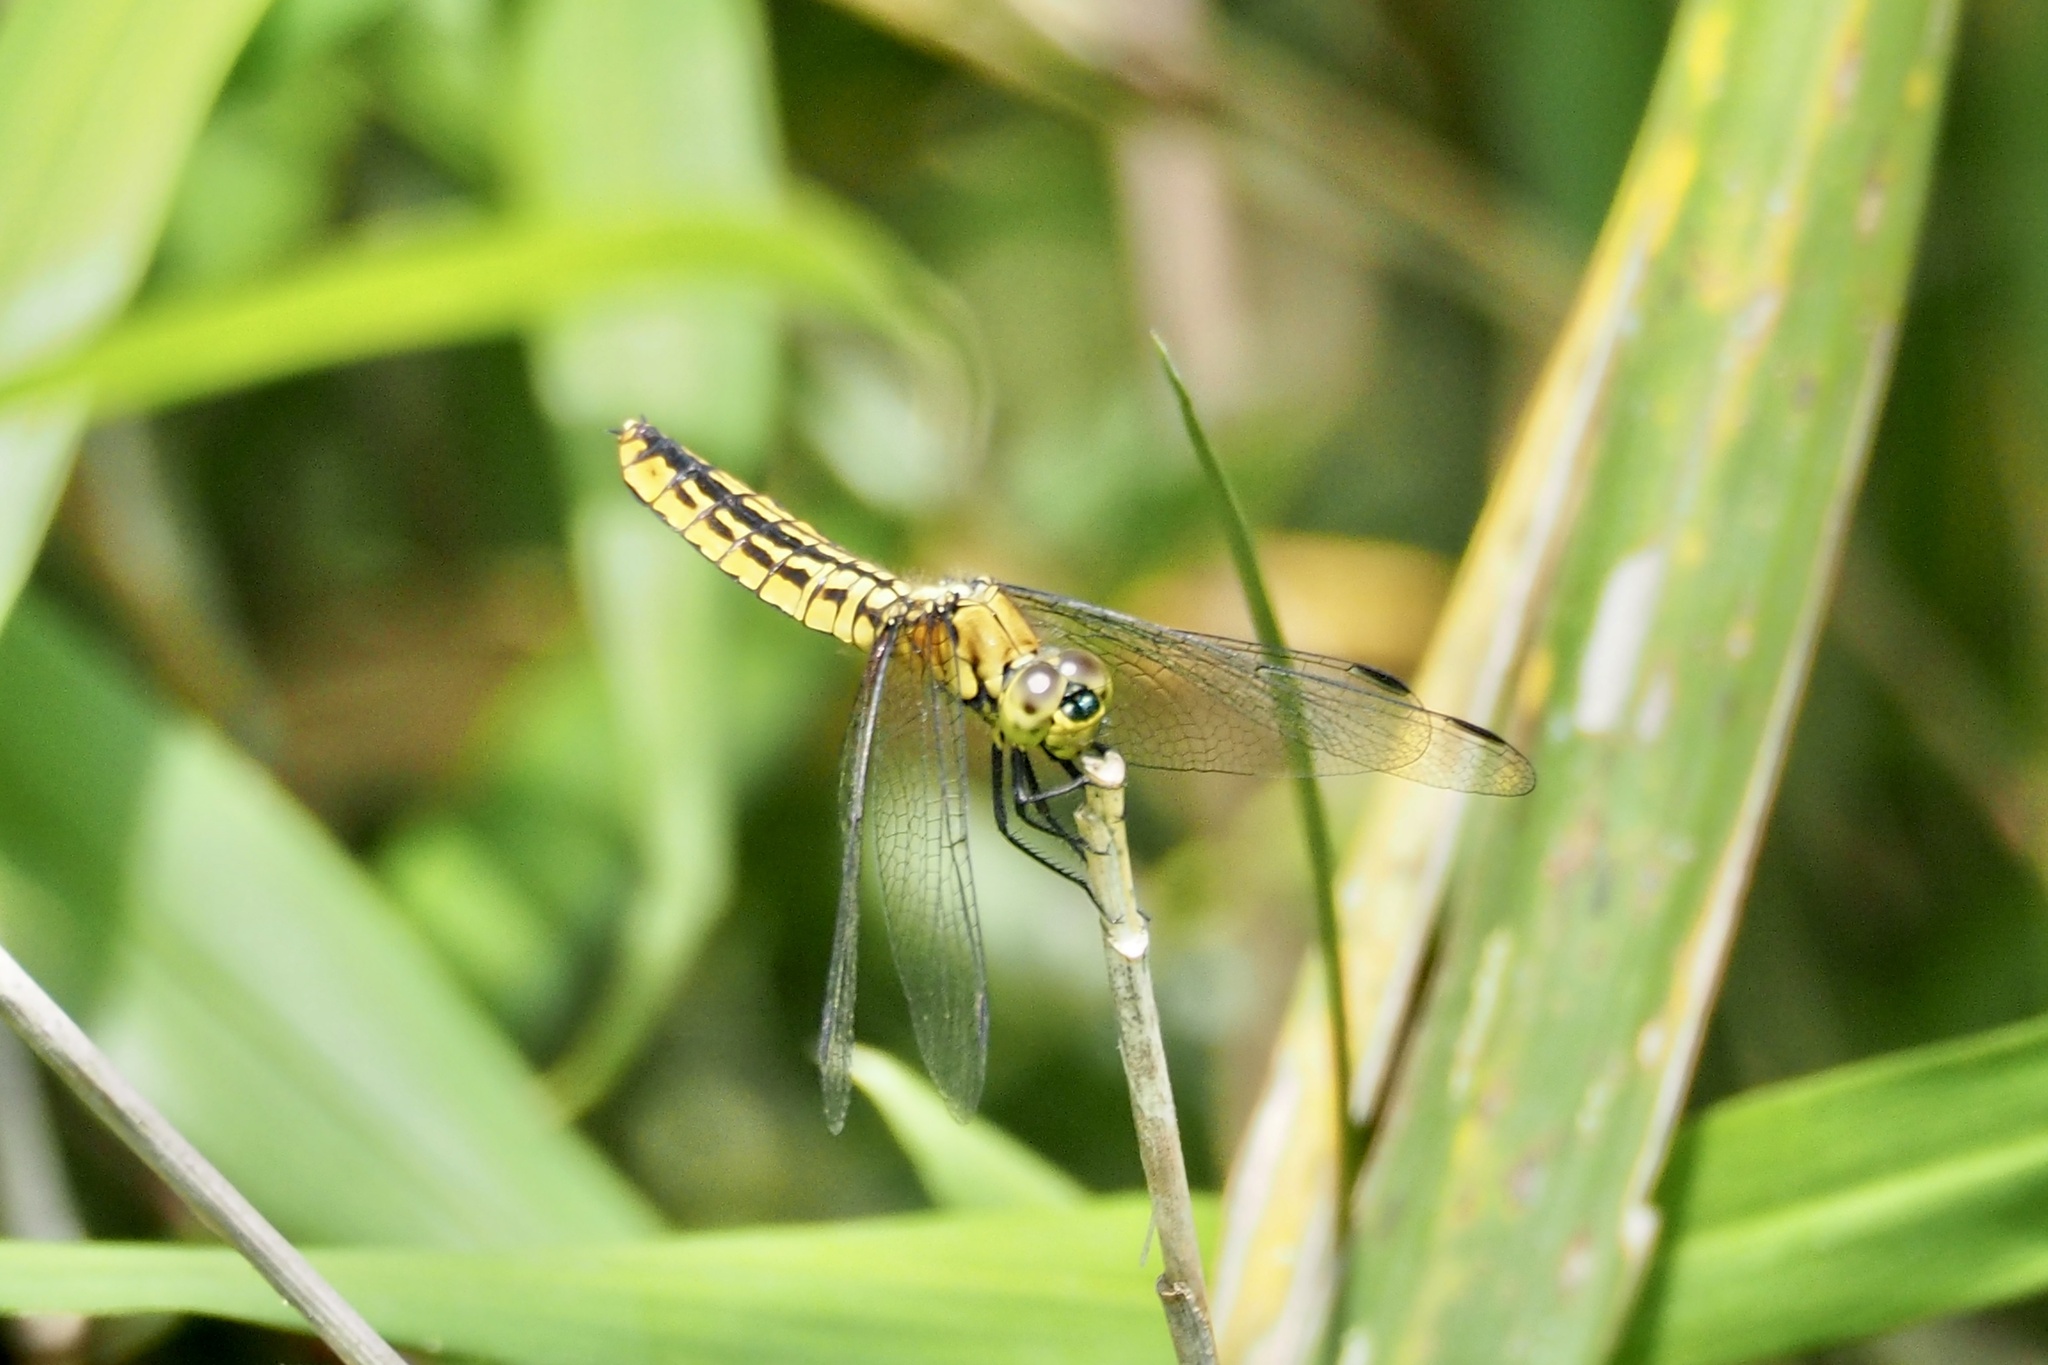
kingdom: Animalia
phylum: Arthropoda
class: Insecta
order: Odonata
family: Libellulidae
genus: Lyriothemis
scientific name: Lyriothemis pachygastra
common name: Wide-bellied skimmer
